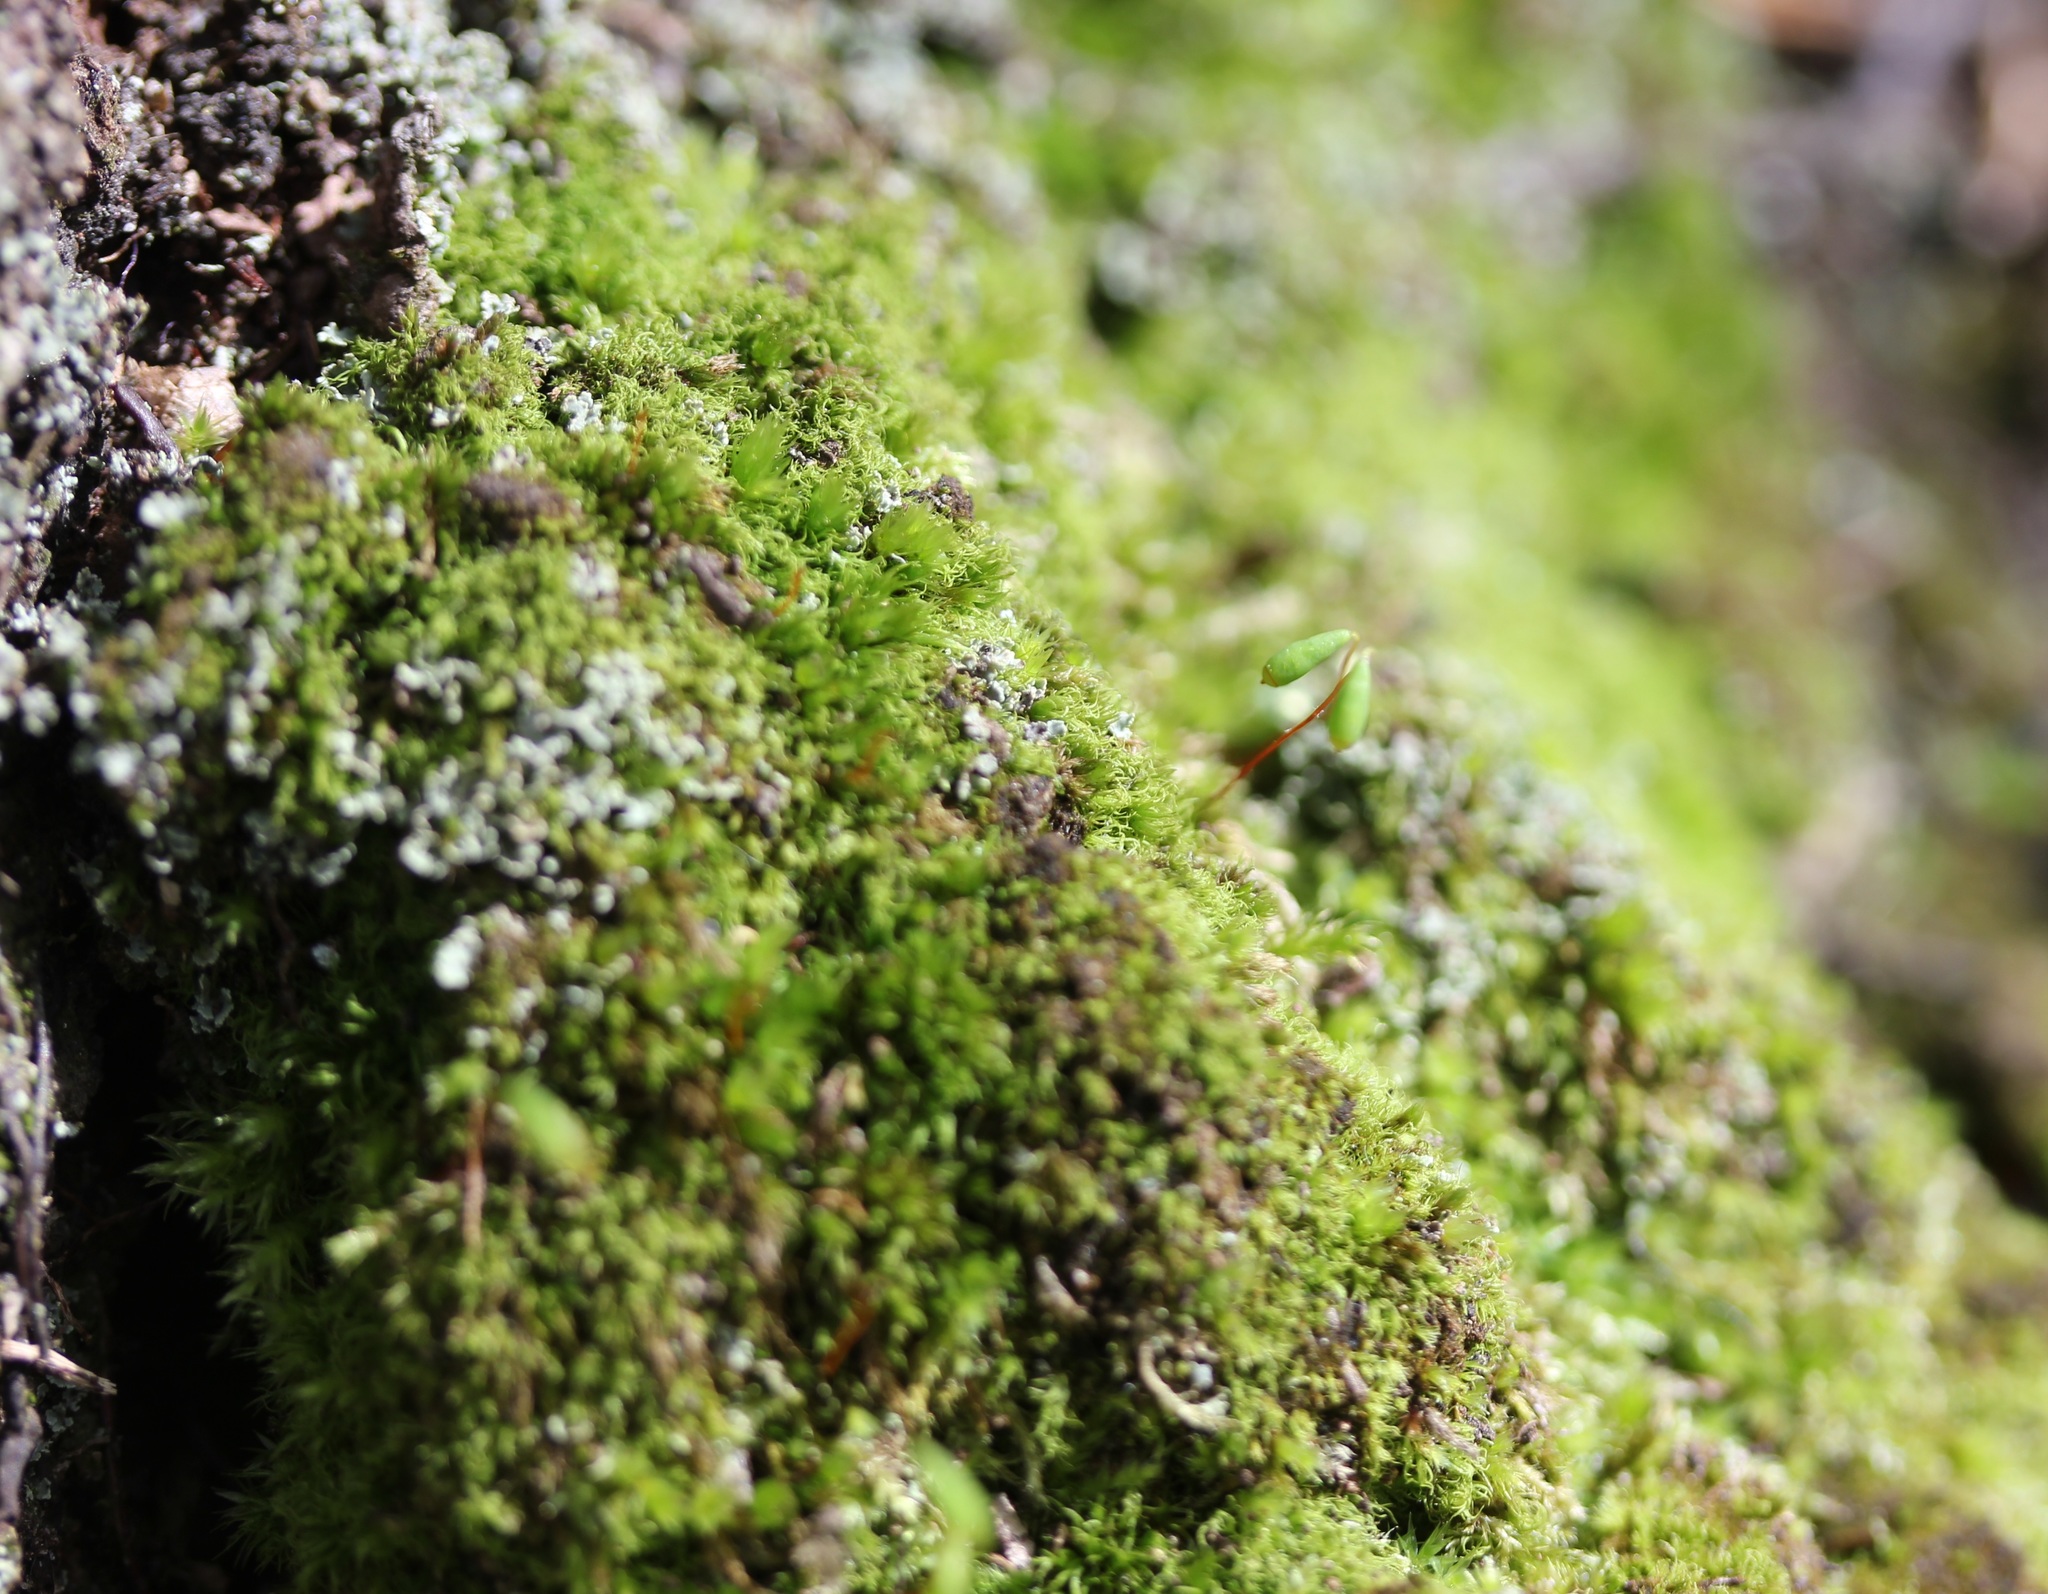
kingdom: Plantae
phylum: Bryophyta
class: Bryopsida
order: Bryales
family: Bryaceae
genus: Rosulabryum
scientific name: Rosulabryum capillare
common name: Capillary thread-moss
